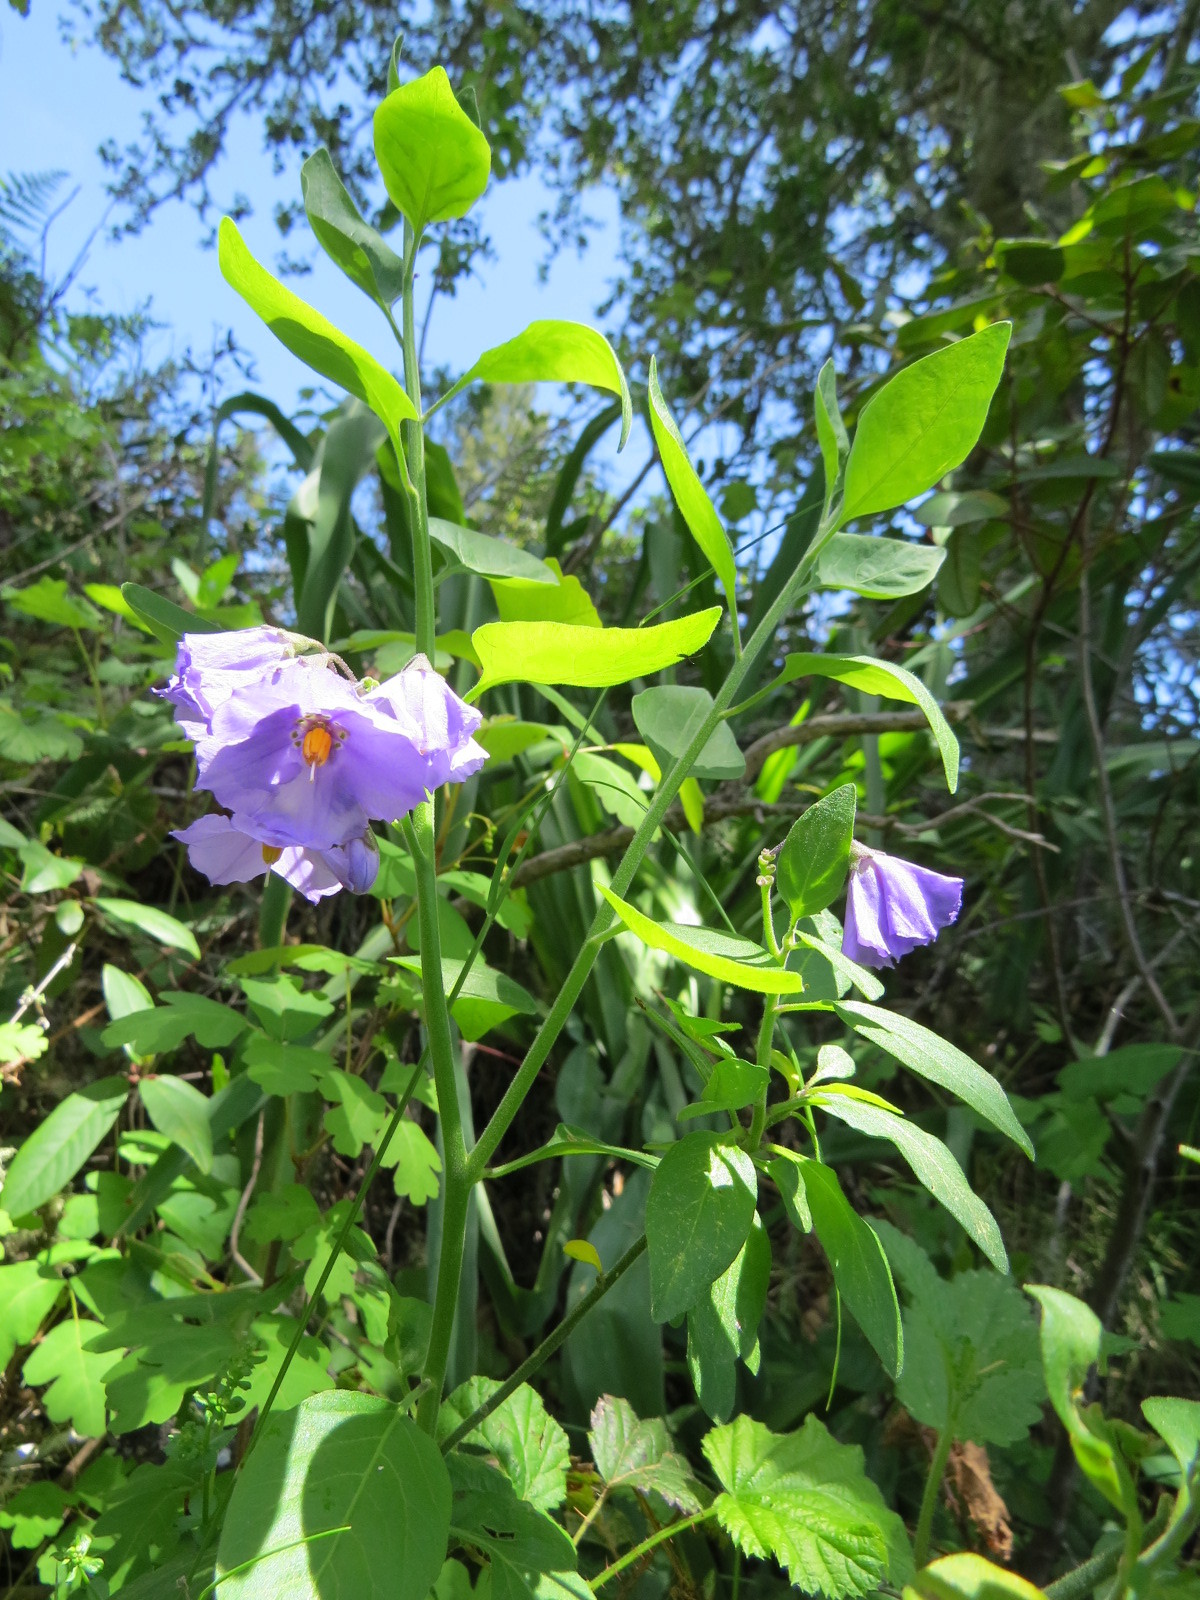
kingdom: Plantae
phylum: Tracheophyta
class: Magnoliopsida
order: Solanales
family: Solanaceae
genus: Solanum
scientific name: Solanum umbelliferum
